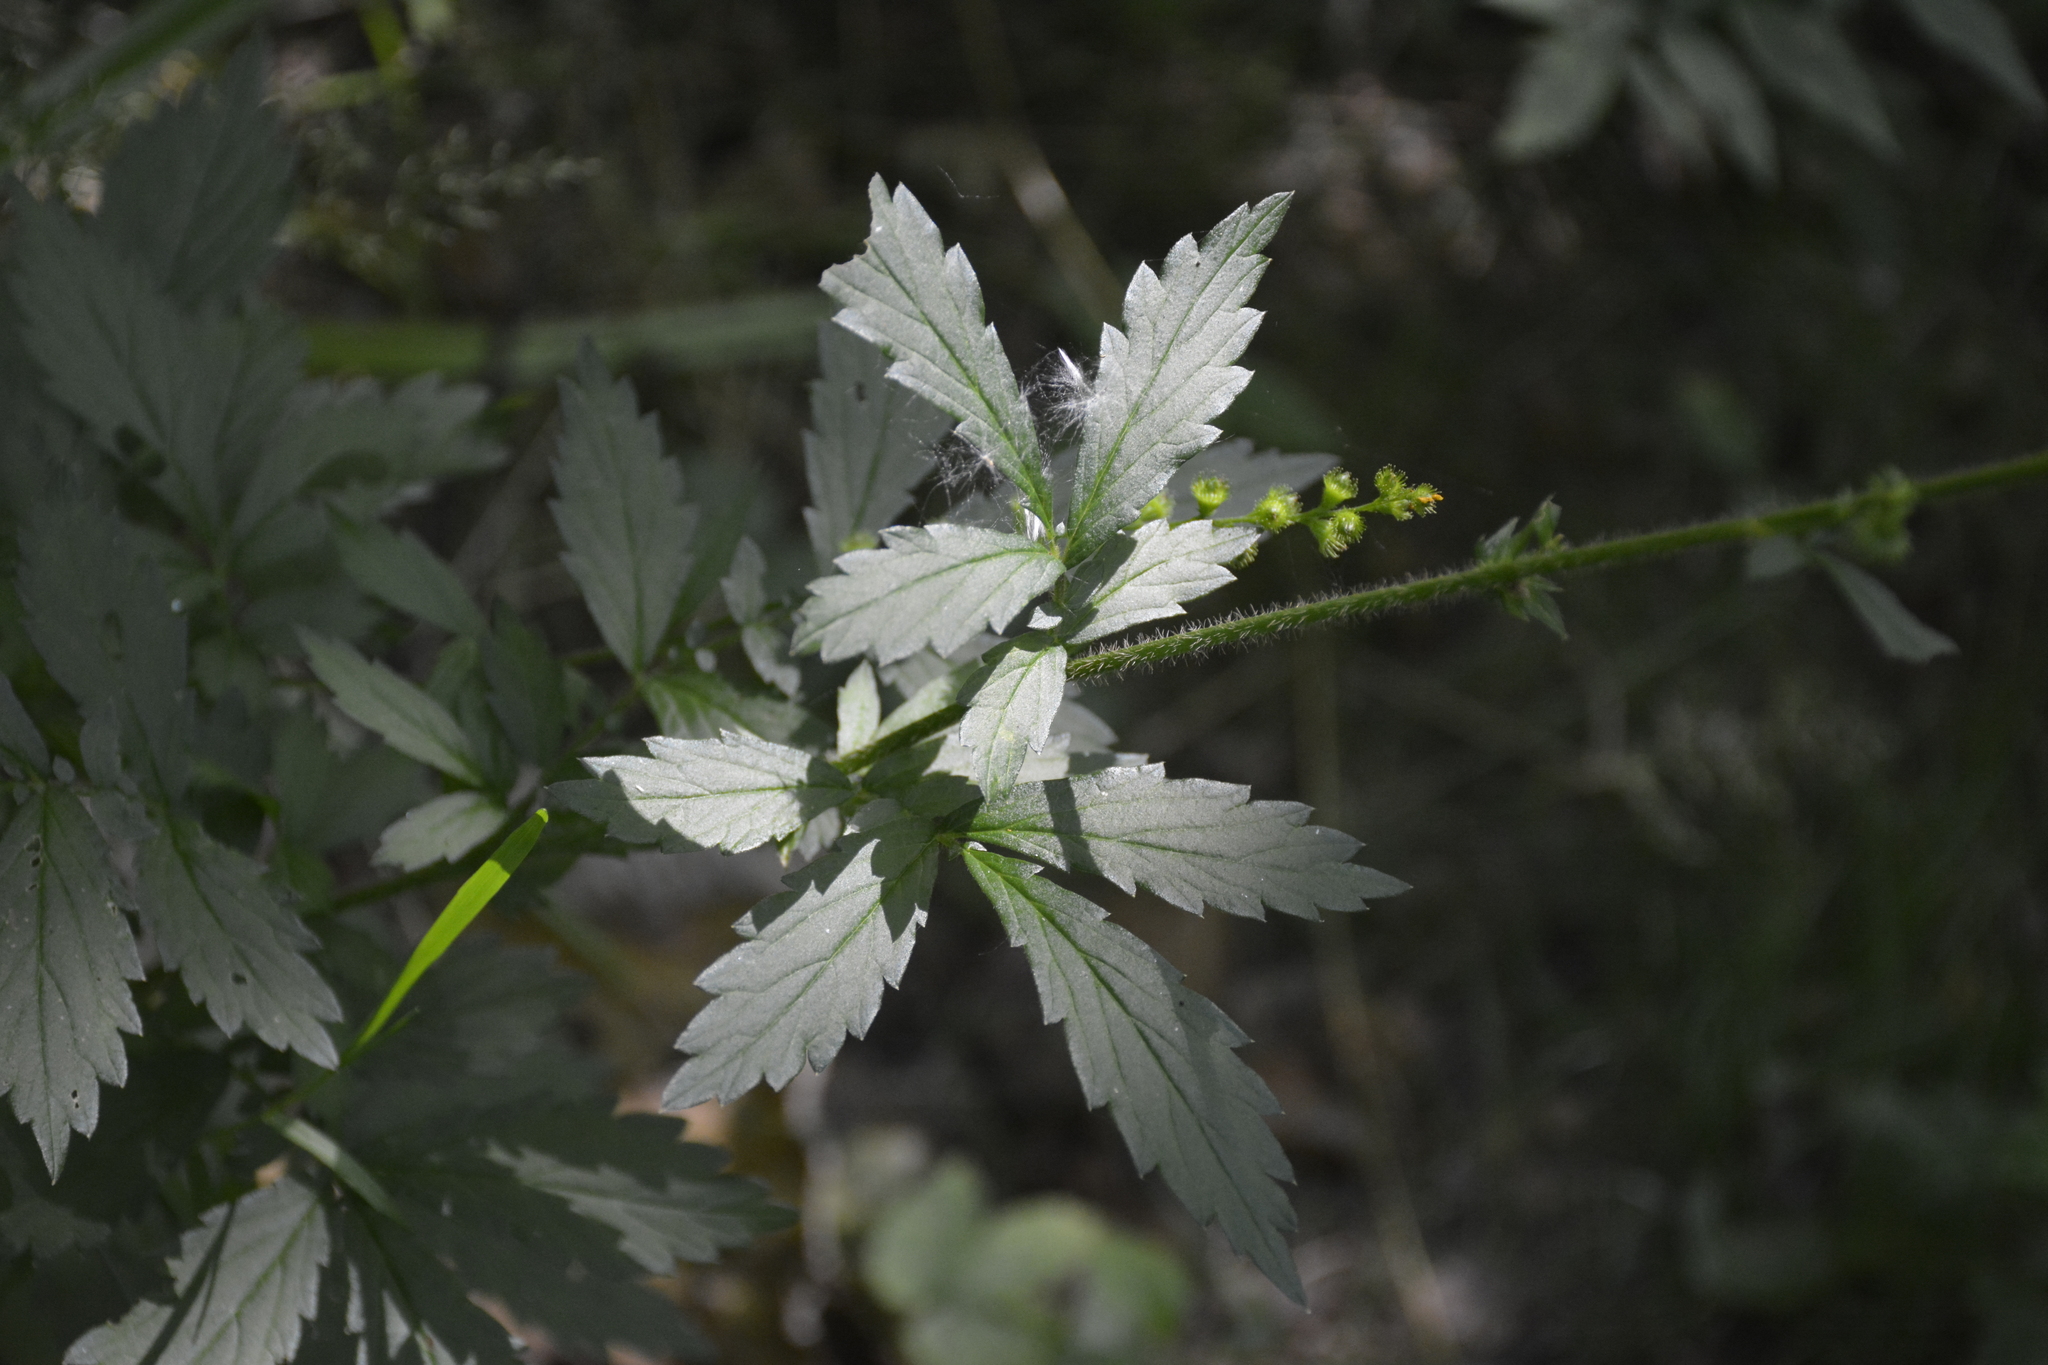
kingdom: Plantae
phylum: Tracheophyta
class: Magnoliopsida
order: Rosales
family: Rosaceae
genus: Agrimonia
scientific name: Agrimonia pilosa
